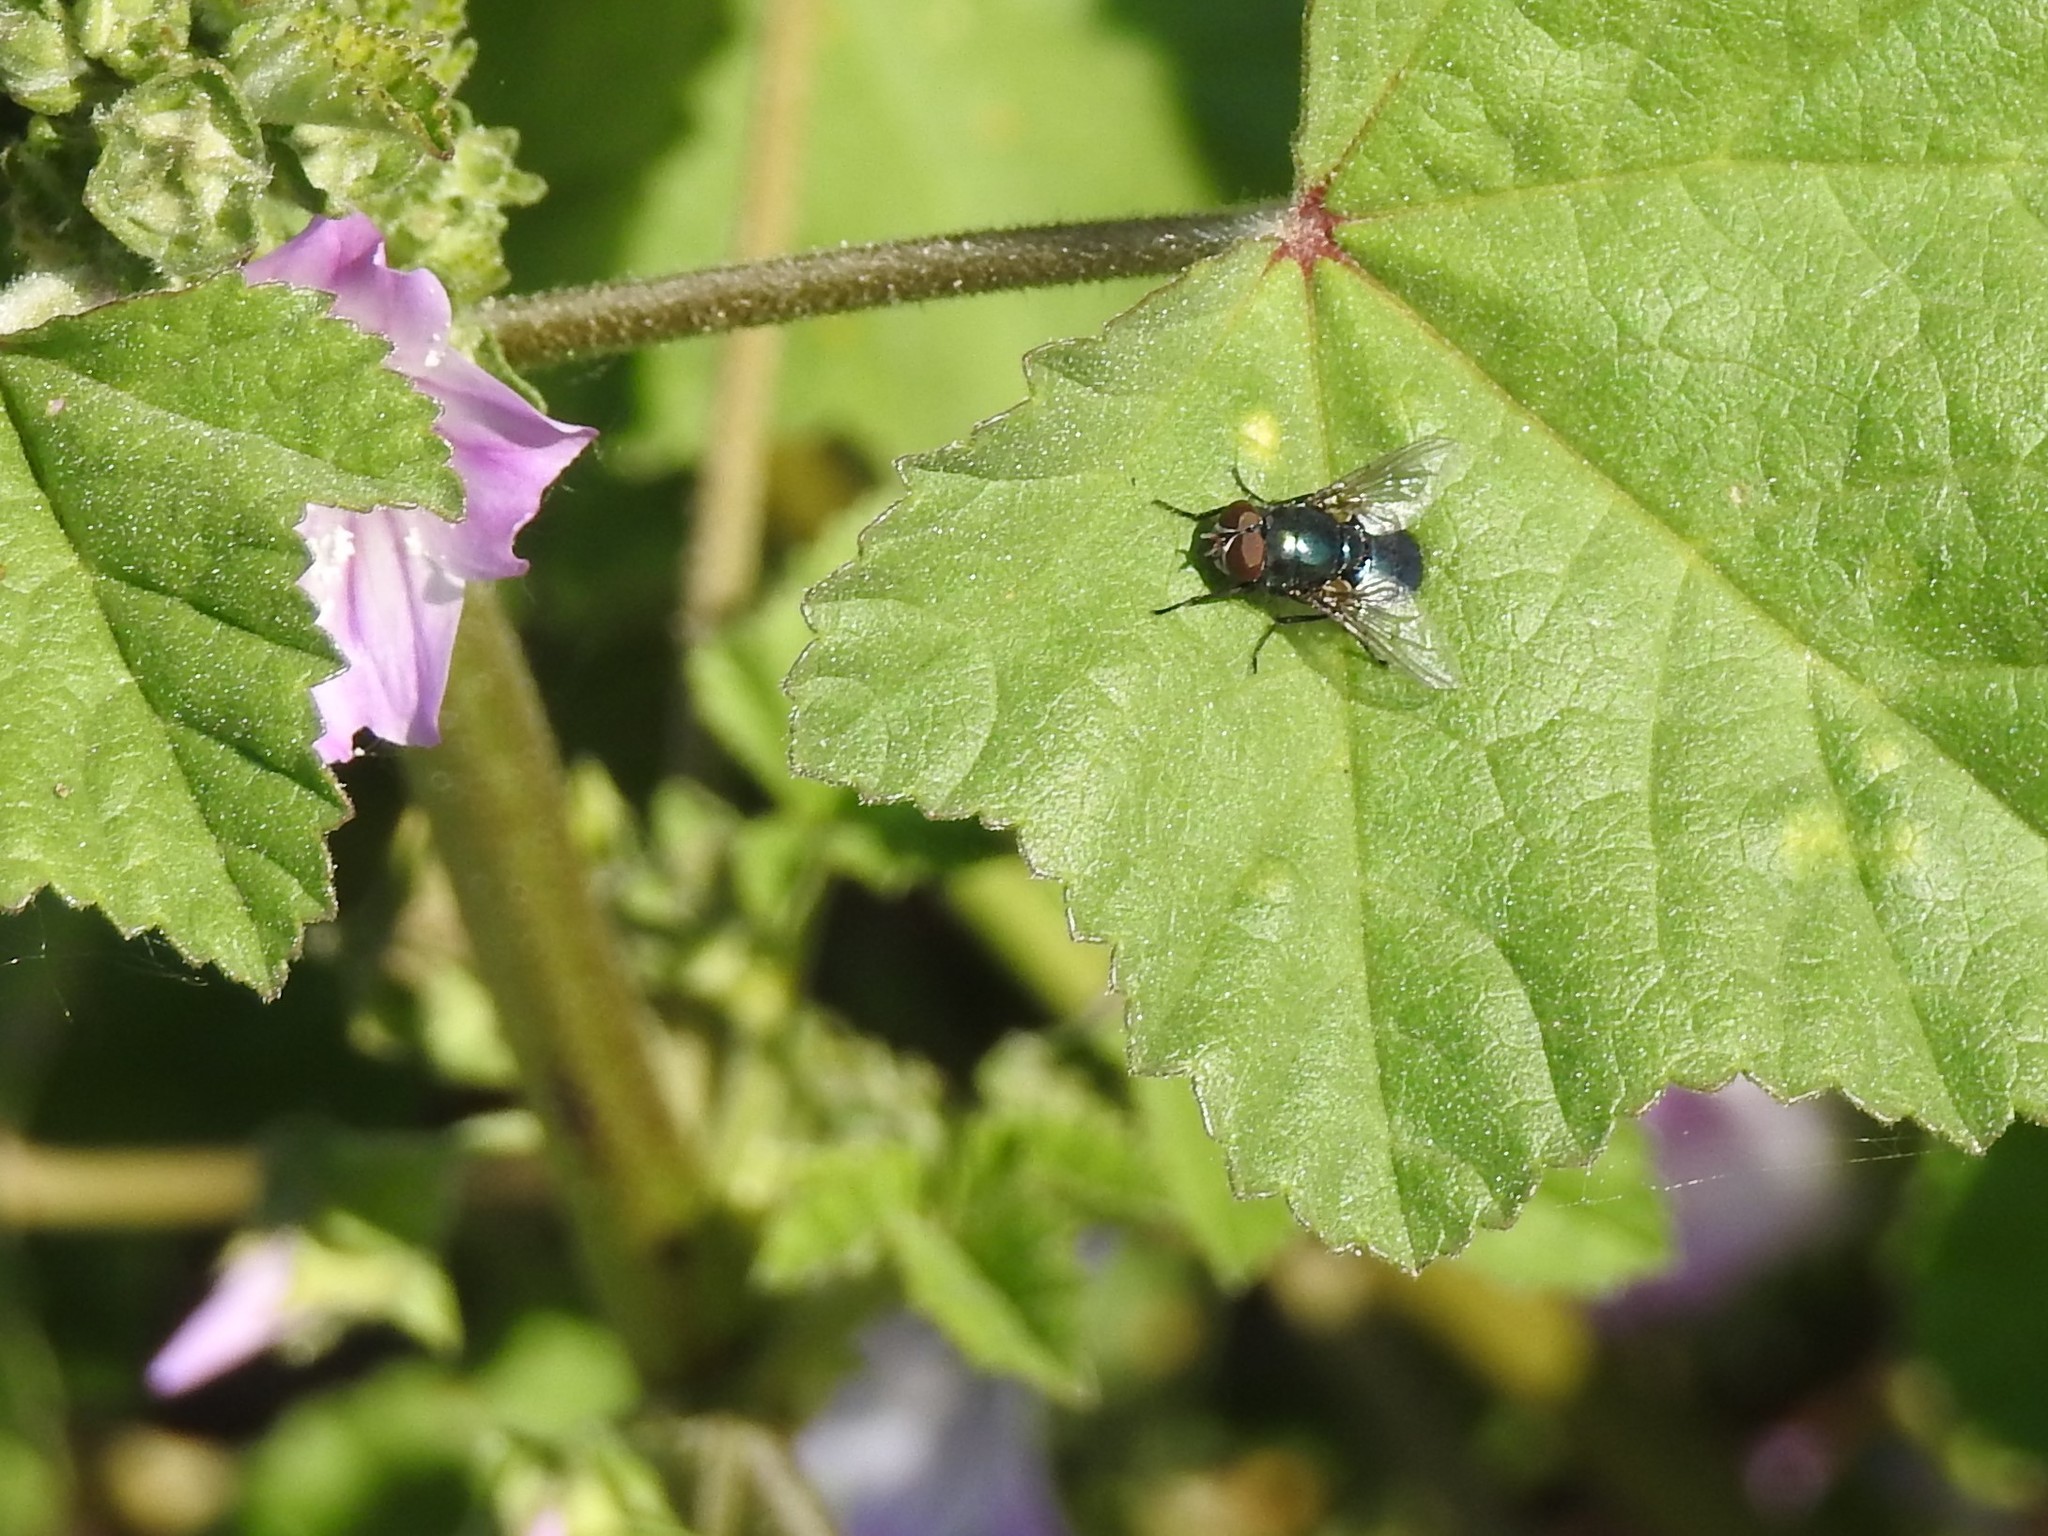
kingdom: Animalia
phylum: Arthropoda
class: Insecta
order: Diptera
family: Calliphoridae
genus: Phormia
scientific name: Phormia regina
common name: Black blow fly
